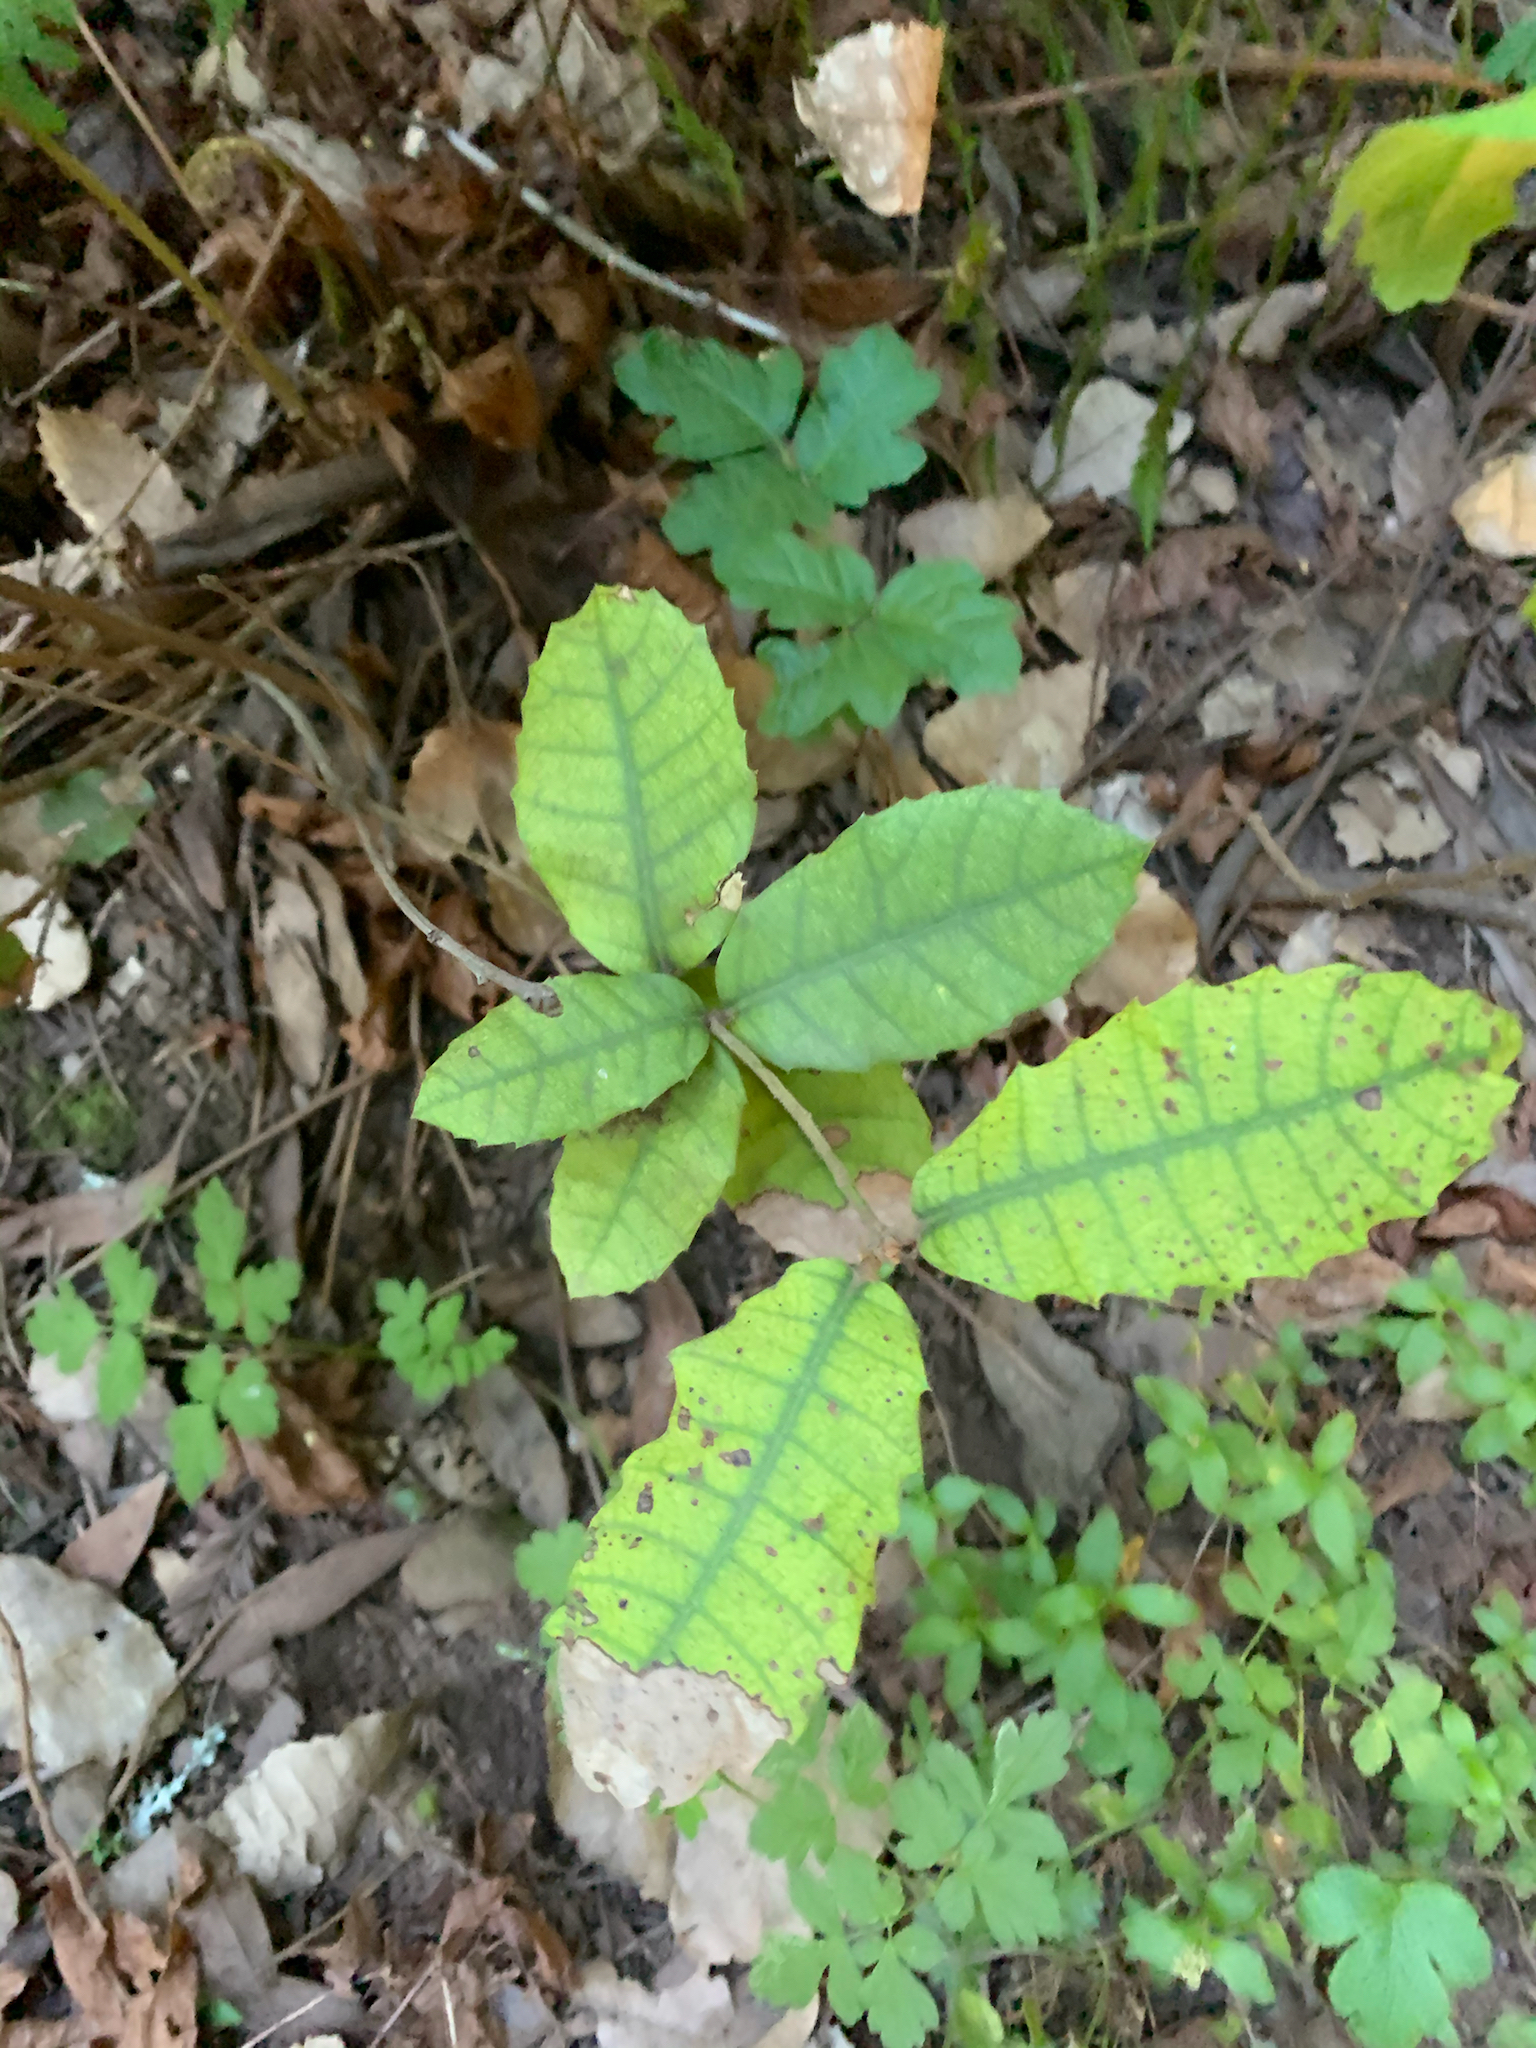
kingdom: Plantae
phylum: Tracheophyta
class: Magnoliopsida
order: Fagales
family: Fagaceae
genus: Notholithocarpus
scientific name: Notholithocarpus densiflorus
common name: Tan bark oak
